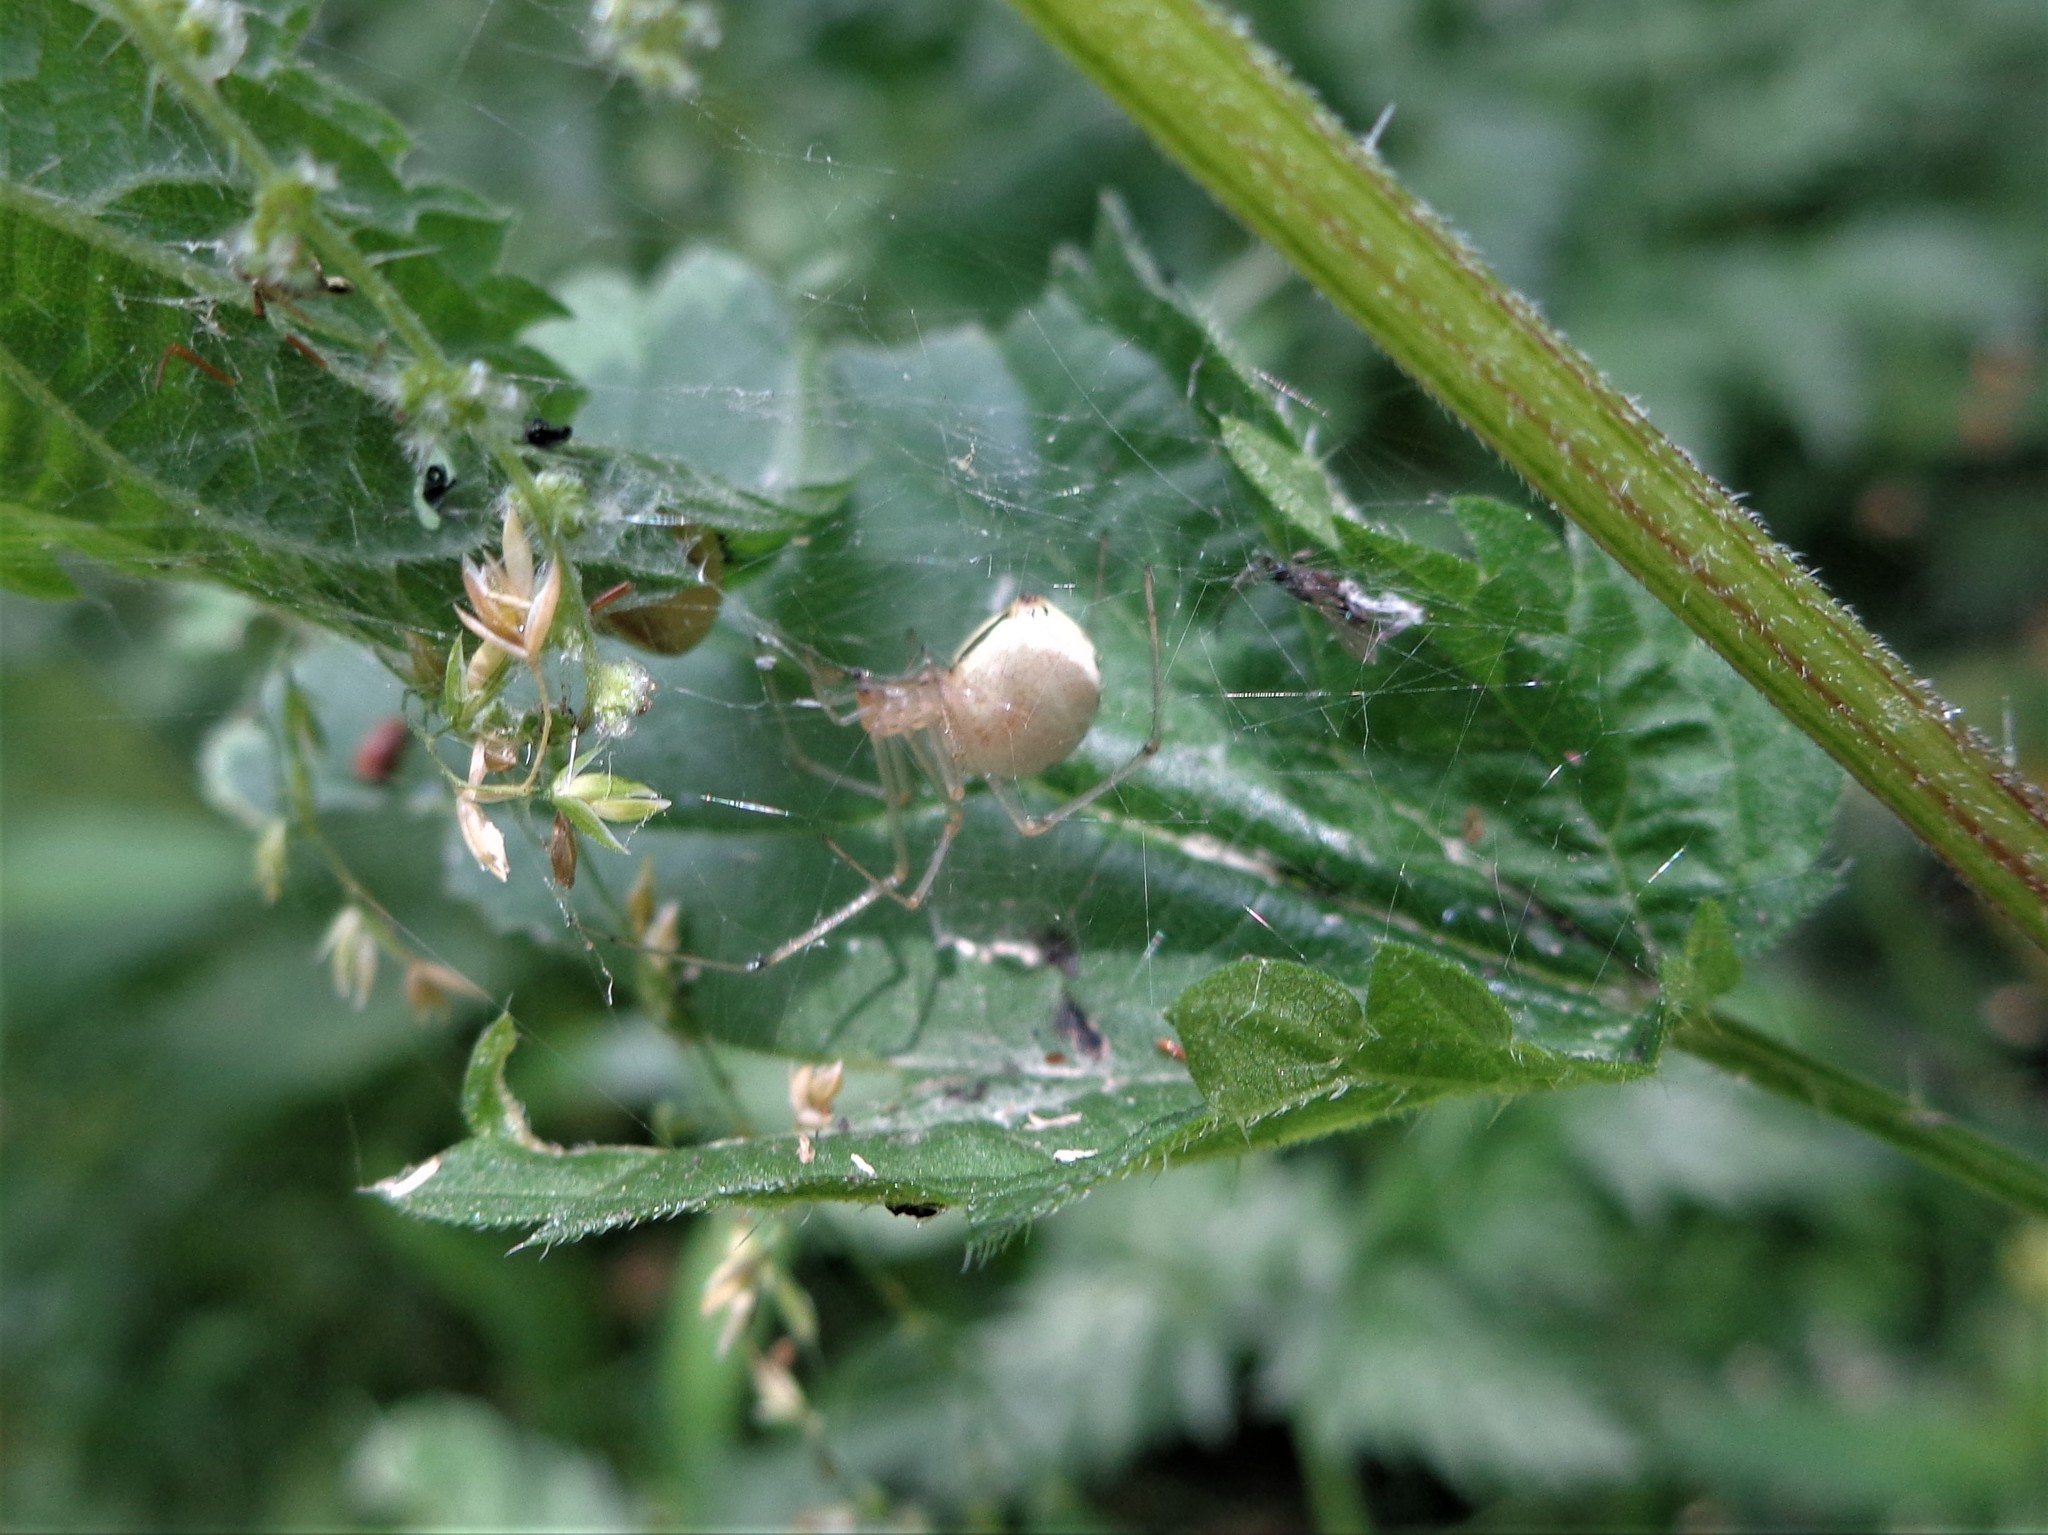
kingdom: Animalia
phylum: Arthropoda
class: Arachnida
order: Araneae
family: Theridiidae
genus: Enoplognatha
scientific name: Enoplognatha ovata
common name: Common candy-striped spider
